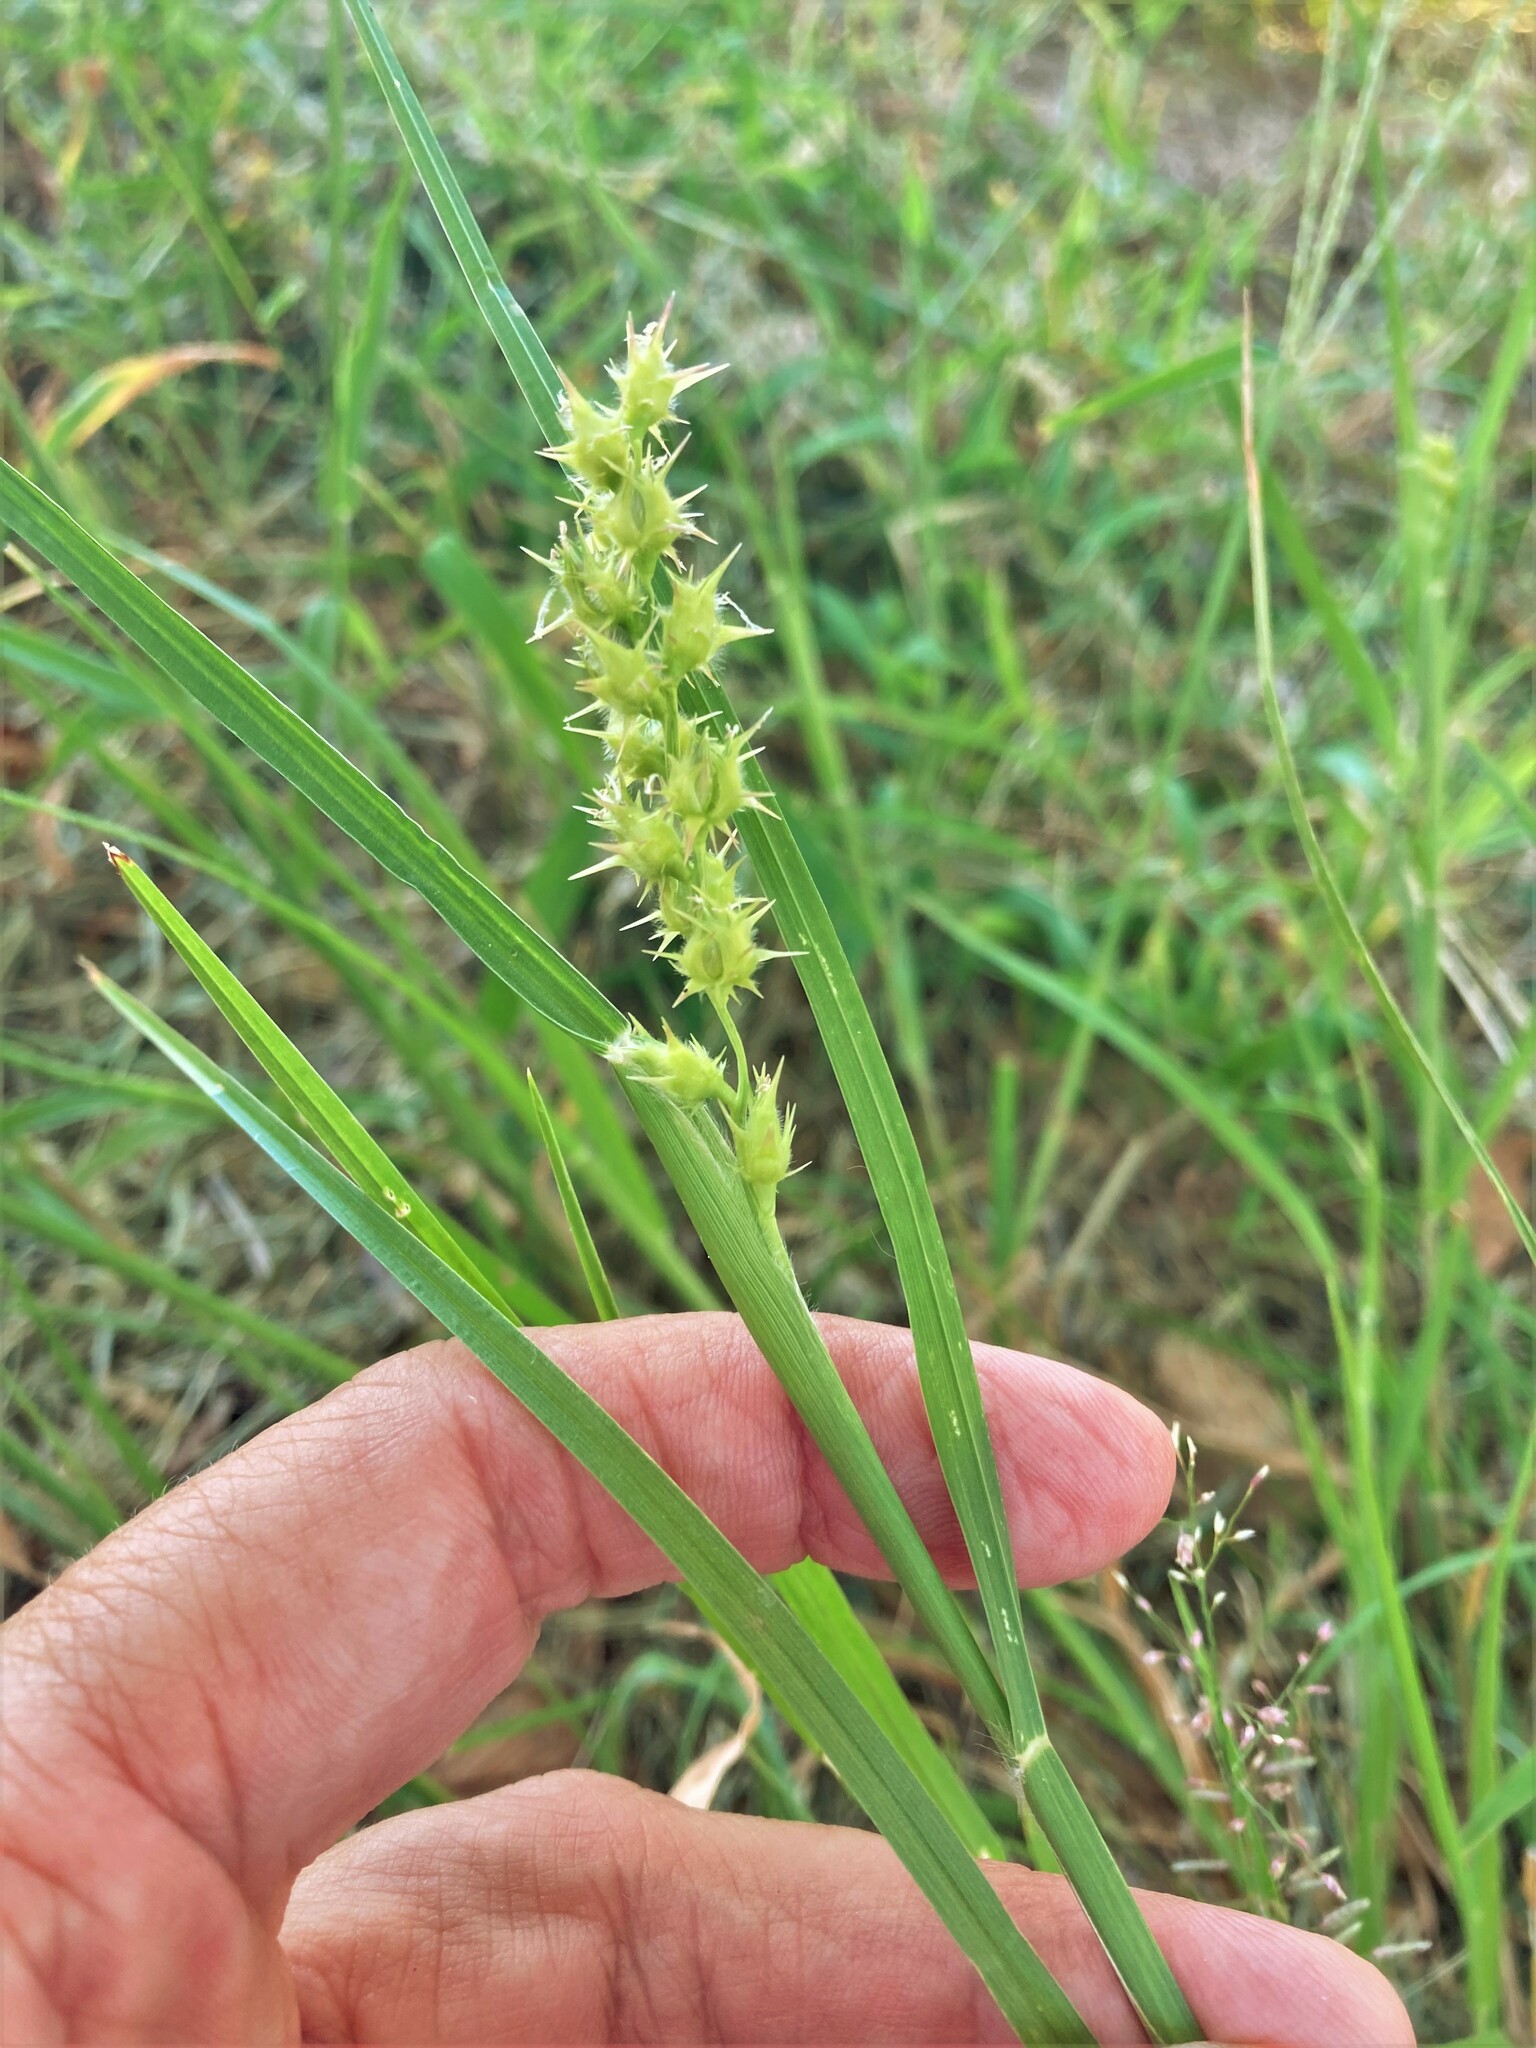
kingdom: Plantae
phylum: Tracheophyta
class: Liliopsida
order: Poales
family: Poaceae
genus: Cenchrus
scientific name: Cenchrus spinifex
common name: Coast sandbur
